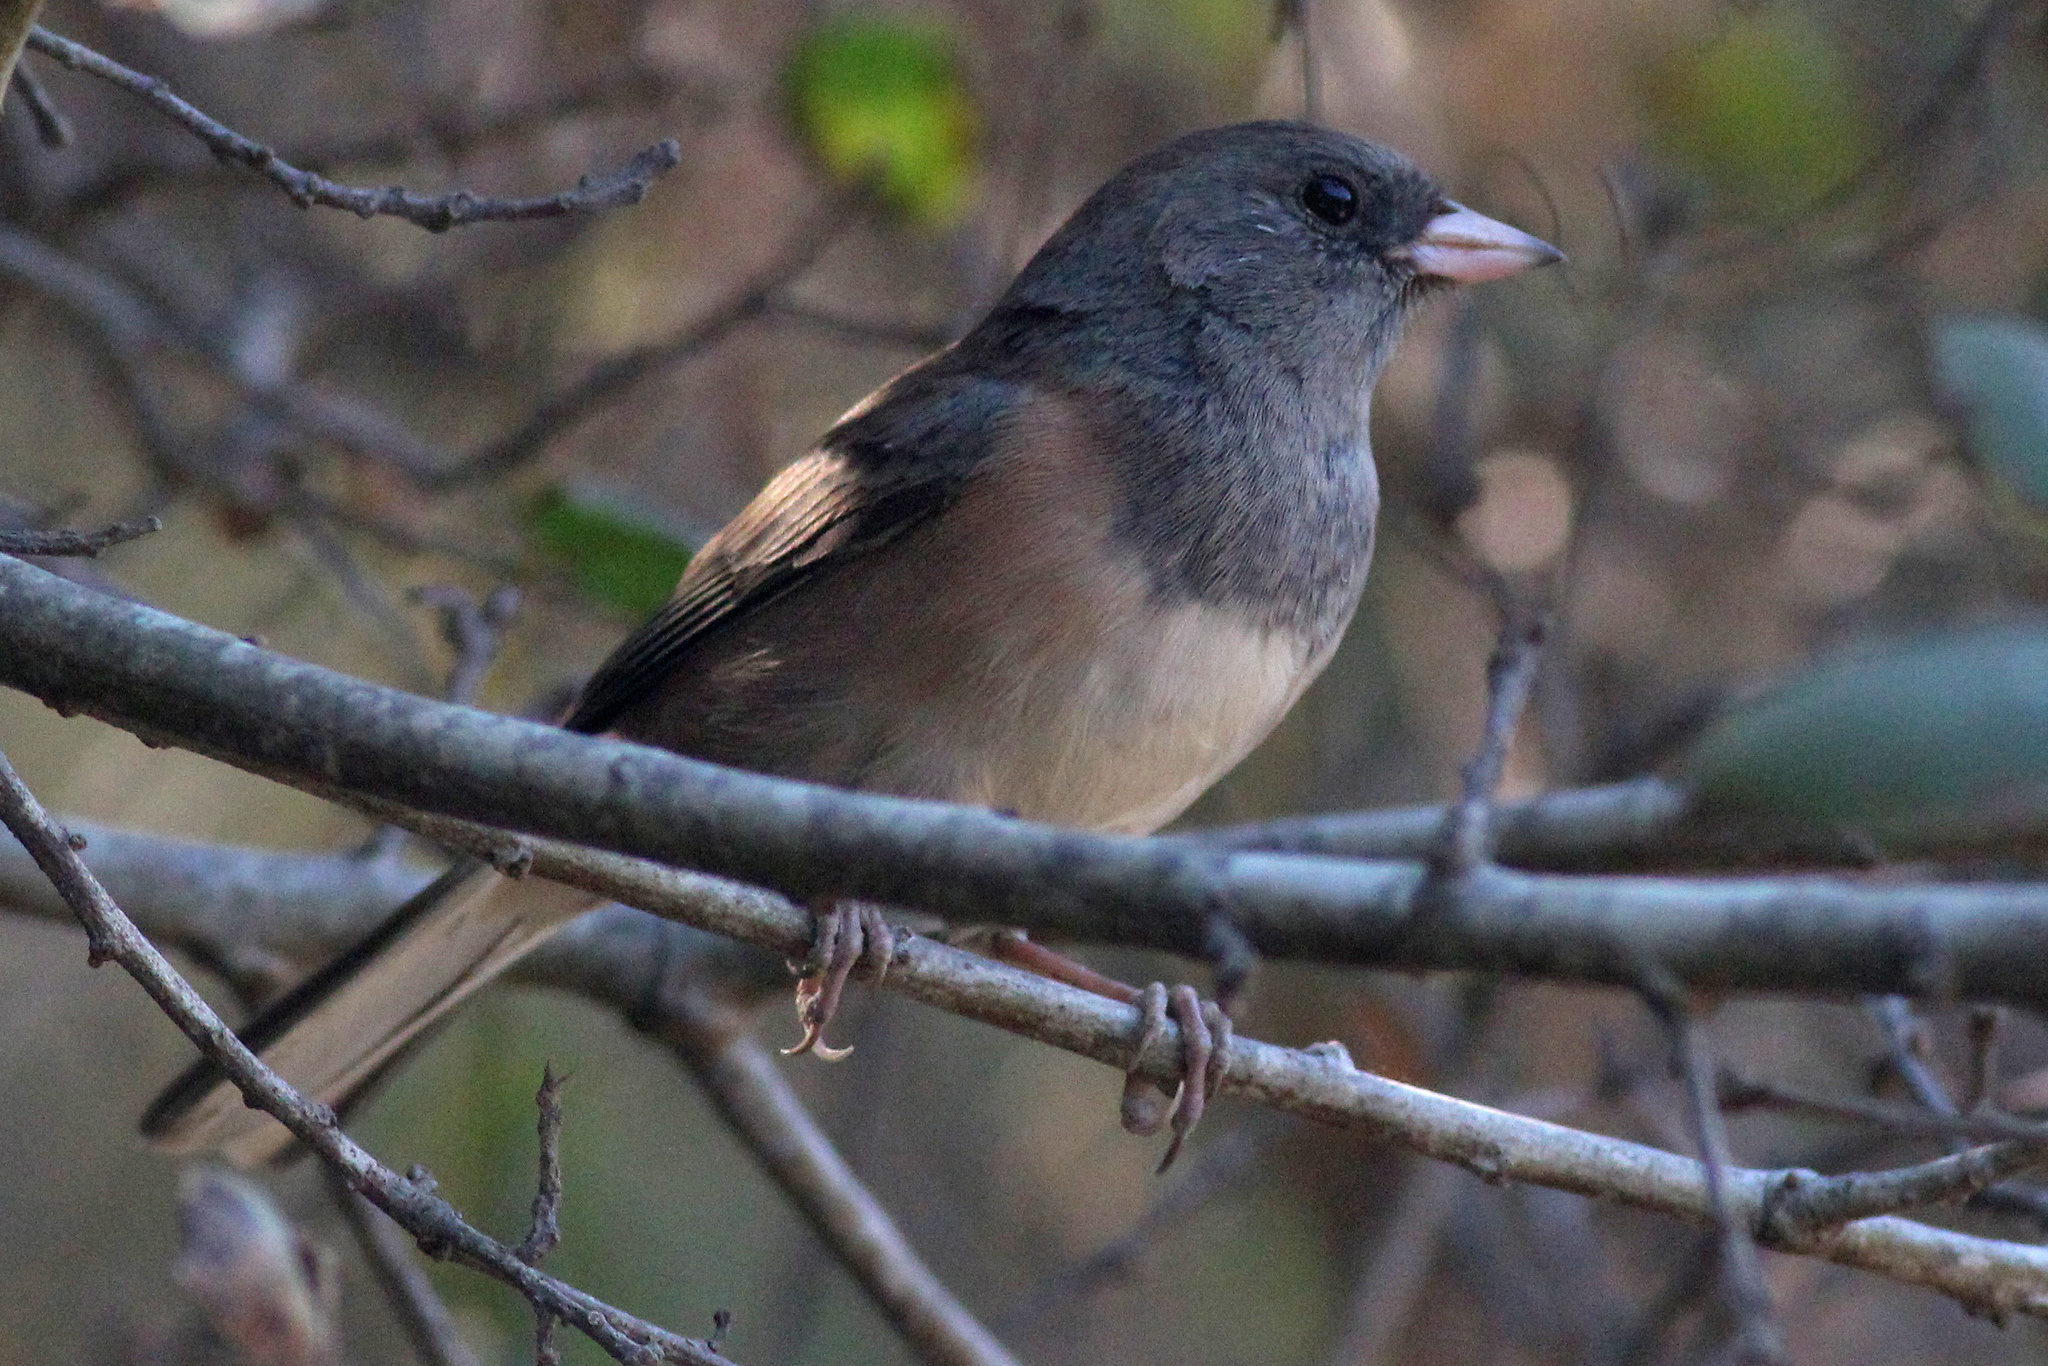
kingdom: Animalia
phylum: Chordata
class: Aves
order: Passeriformes
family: Passerellidae
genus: Junco
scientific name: Junco hyemalis
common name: Dark-eyed junco
